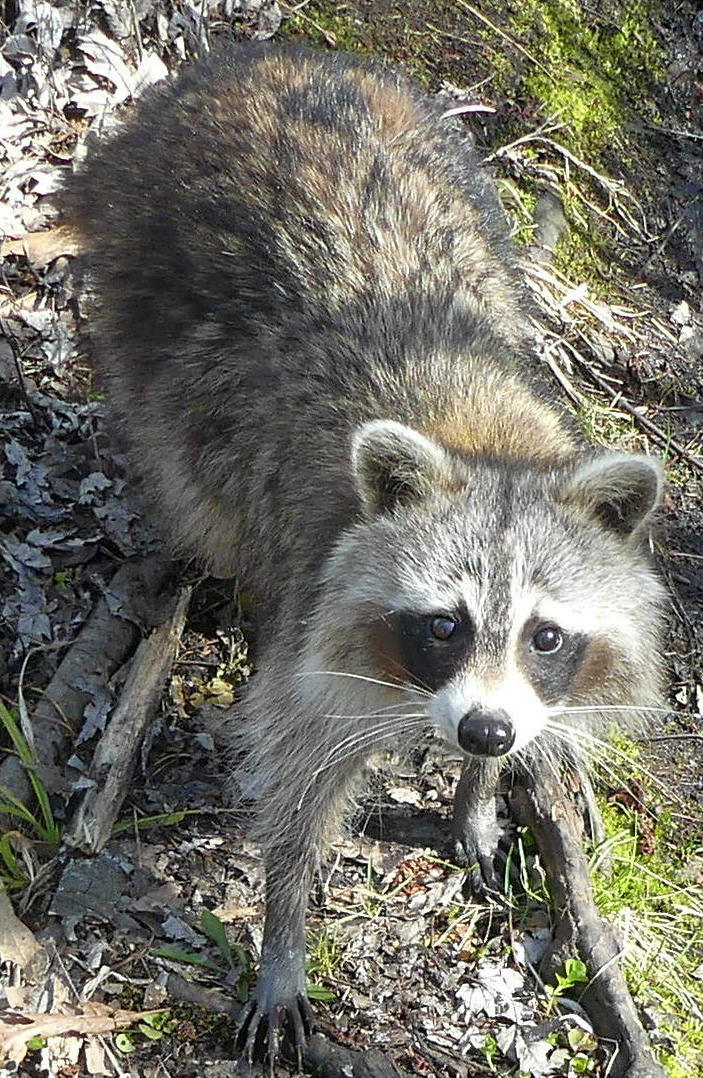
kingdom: Animalia
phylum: Chordata
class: Mammalia
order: Carnivora
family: Procyonidae
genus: Procyon
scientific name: Procyon lotor
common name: Raccoon
